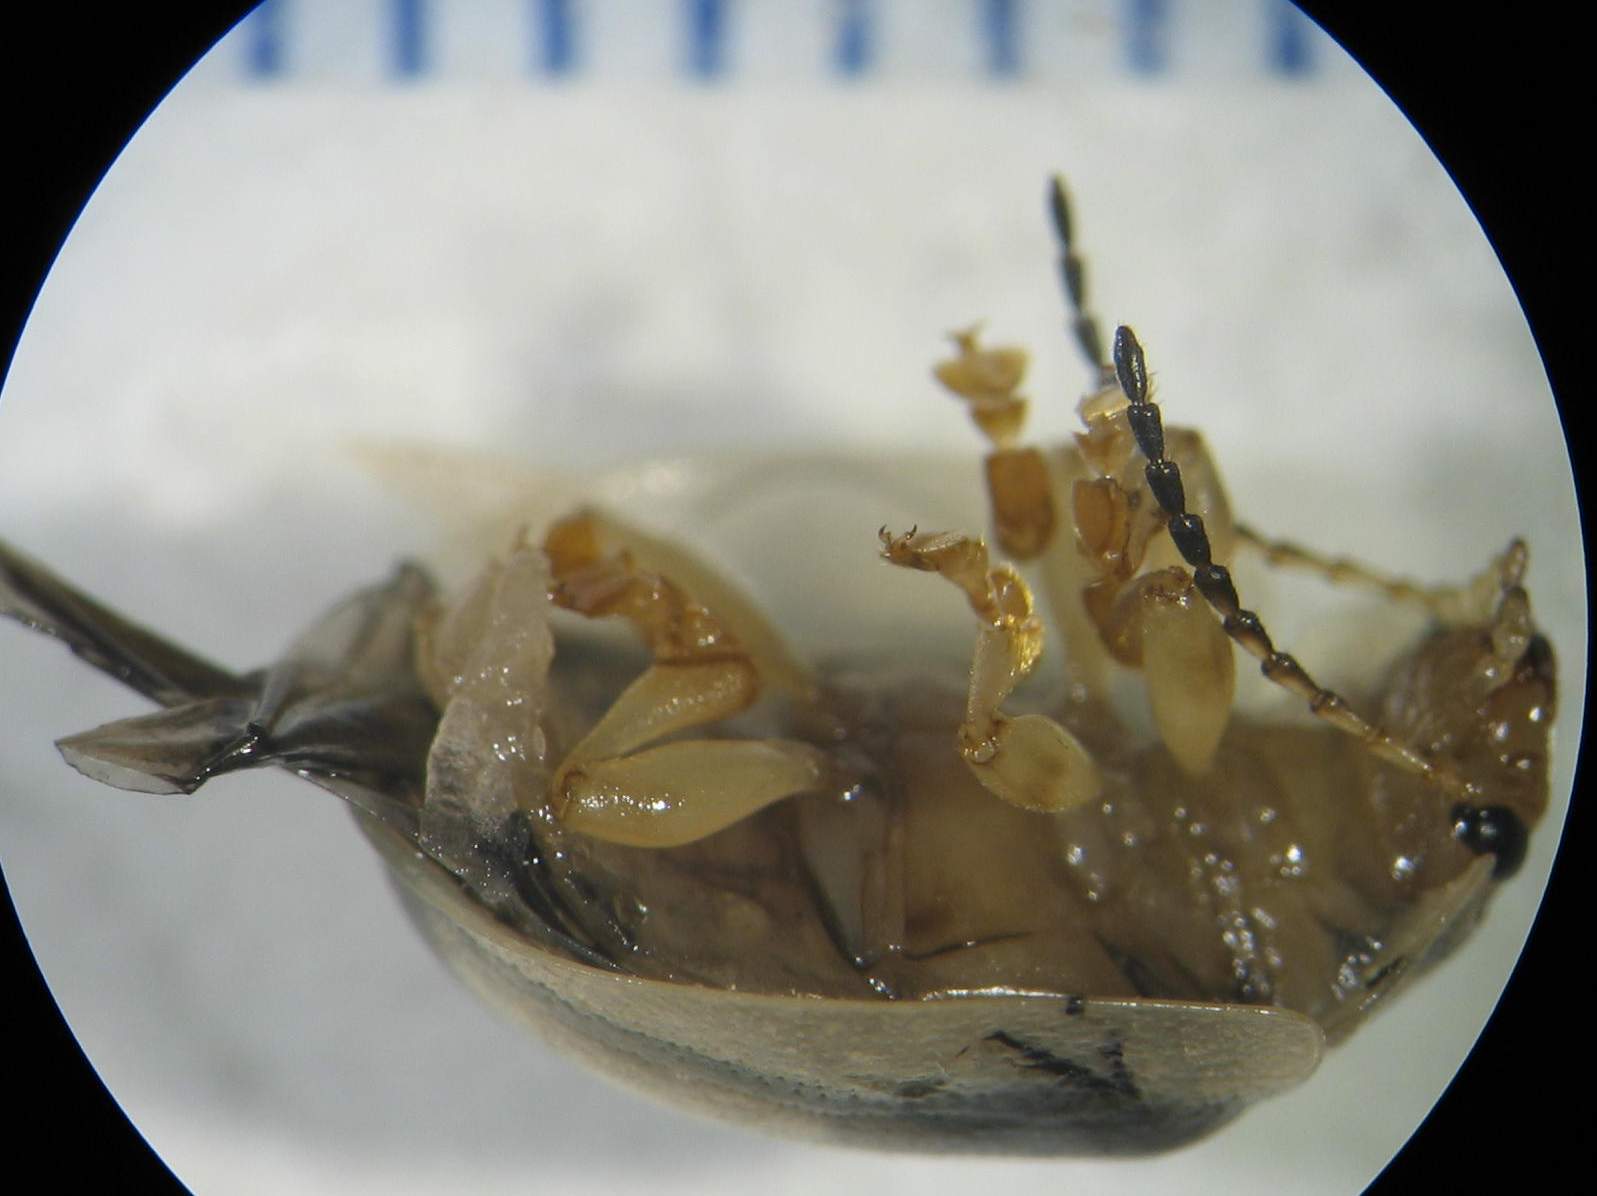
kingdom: Animalia
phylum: Arthropoda
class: Insecta
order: Coleoptera
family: Chrysomelidae
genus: Paropsisterna
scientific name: Paropsisterna bimaculata
